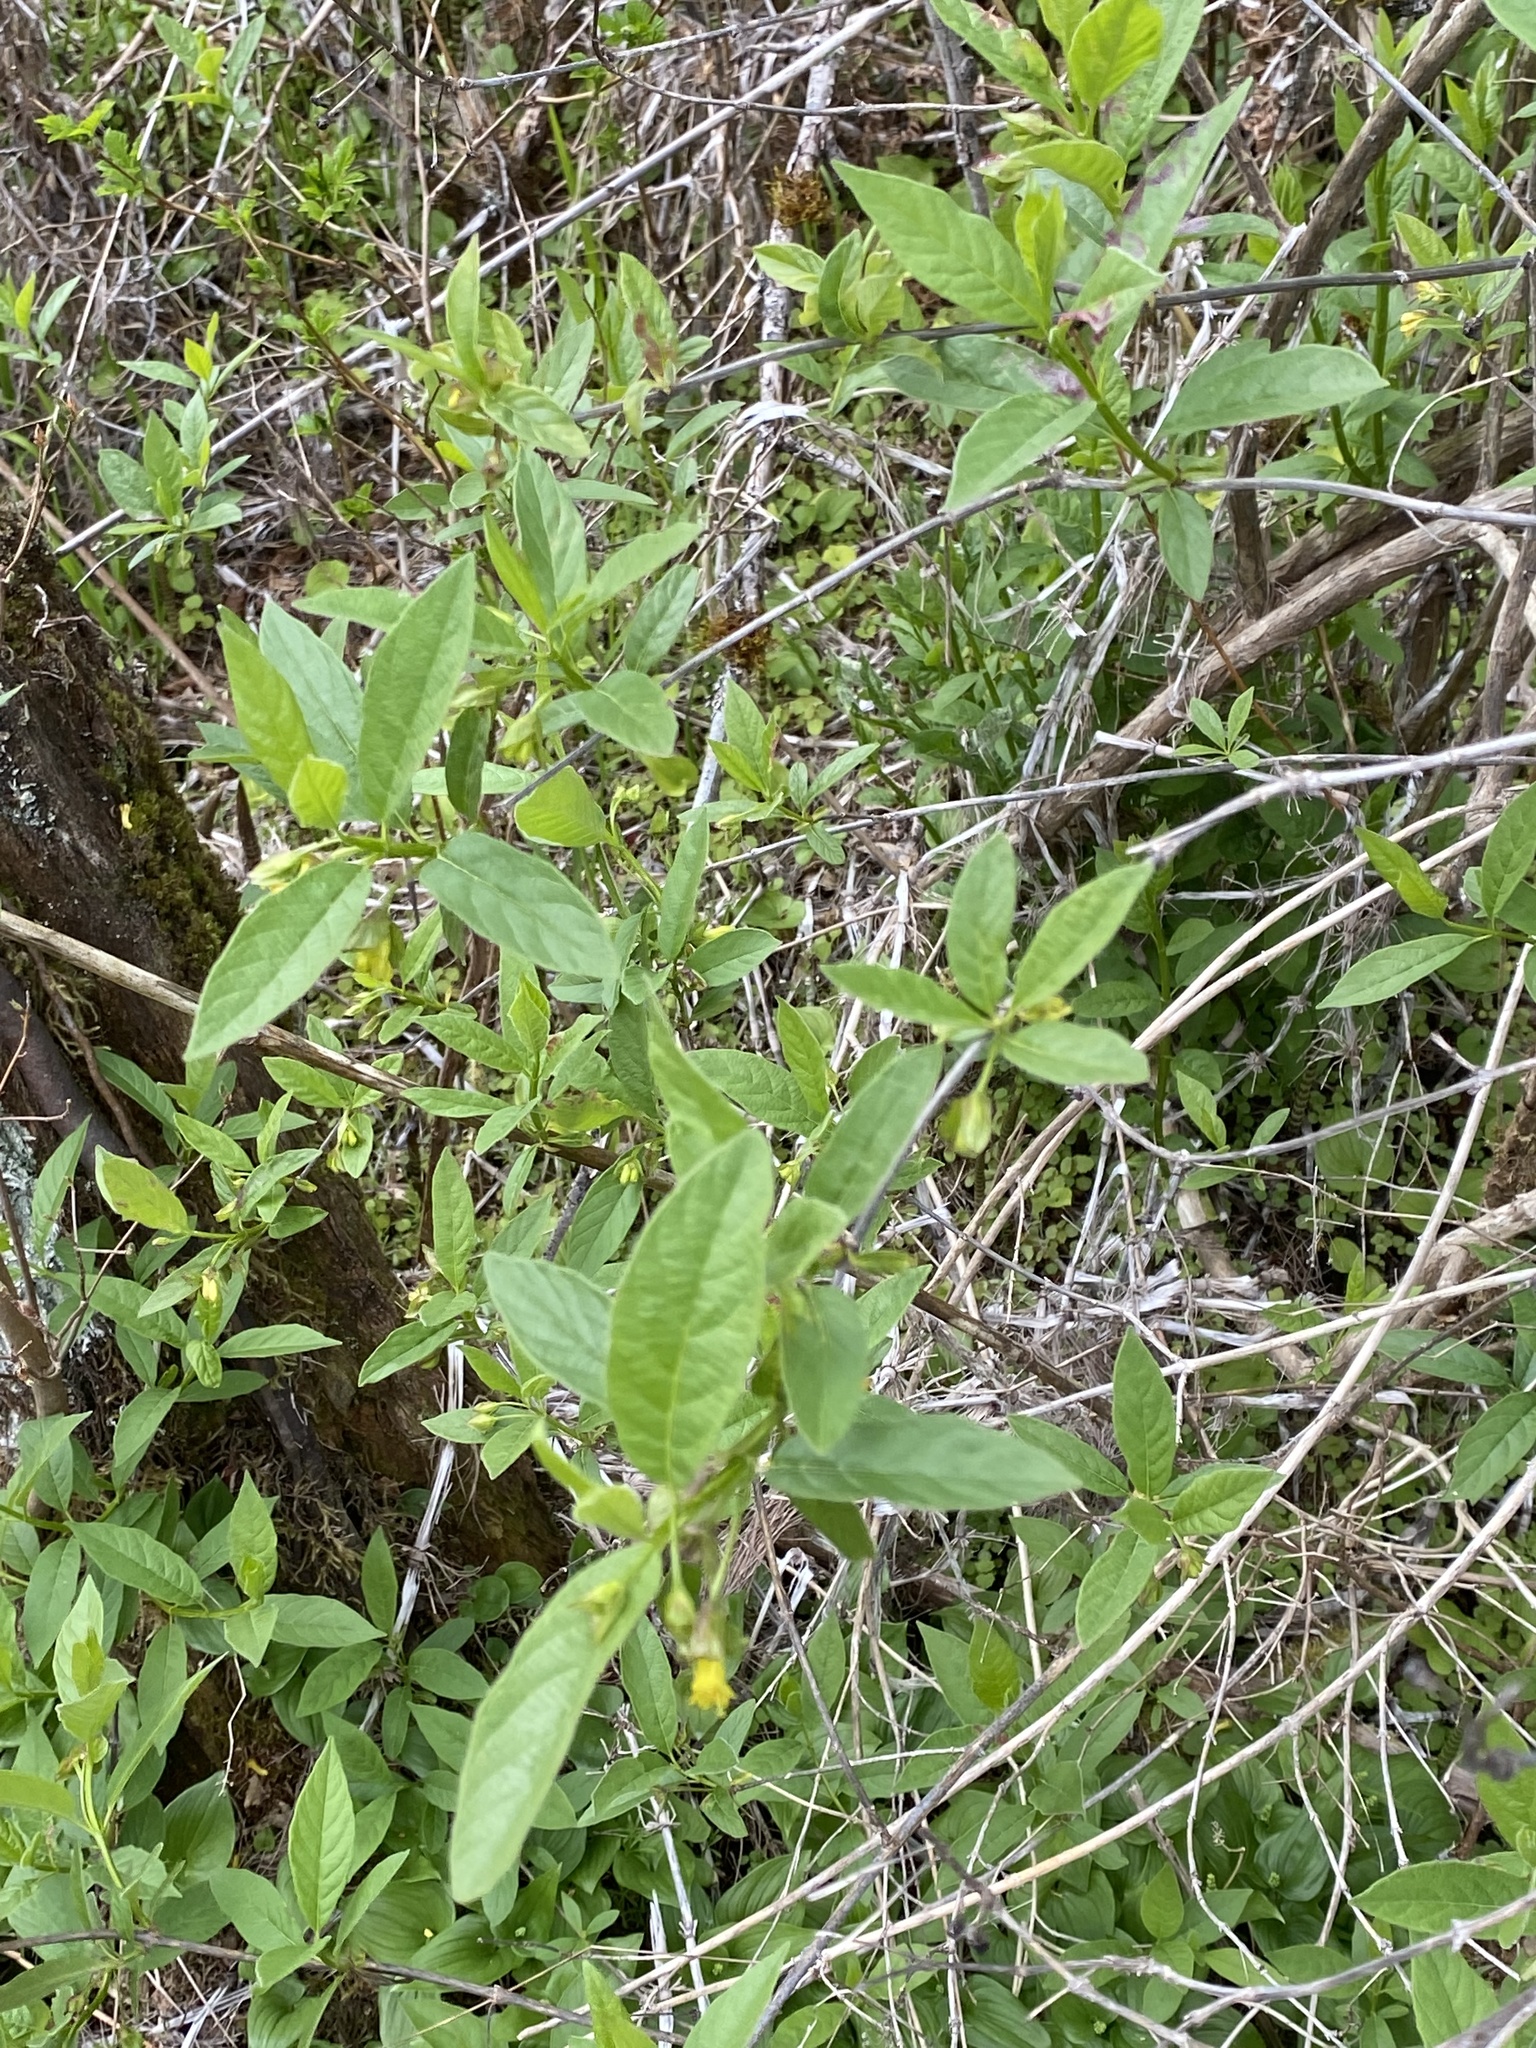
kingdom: Plantae
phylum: Tracheophyta
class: Magnoliopsida
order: Dipsacales
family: Caprifoliaceae
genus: Lonicera
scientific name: Lonicera involucrata
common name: Californian honeysuckle
